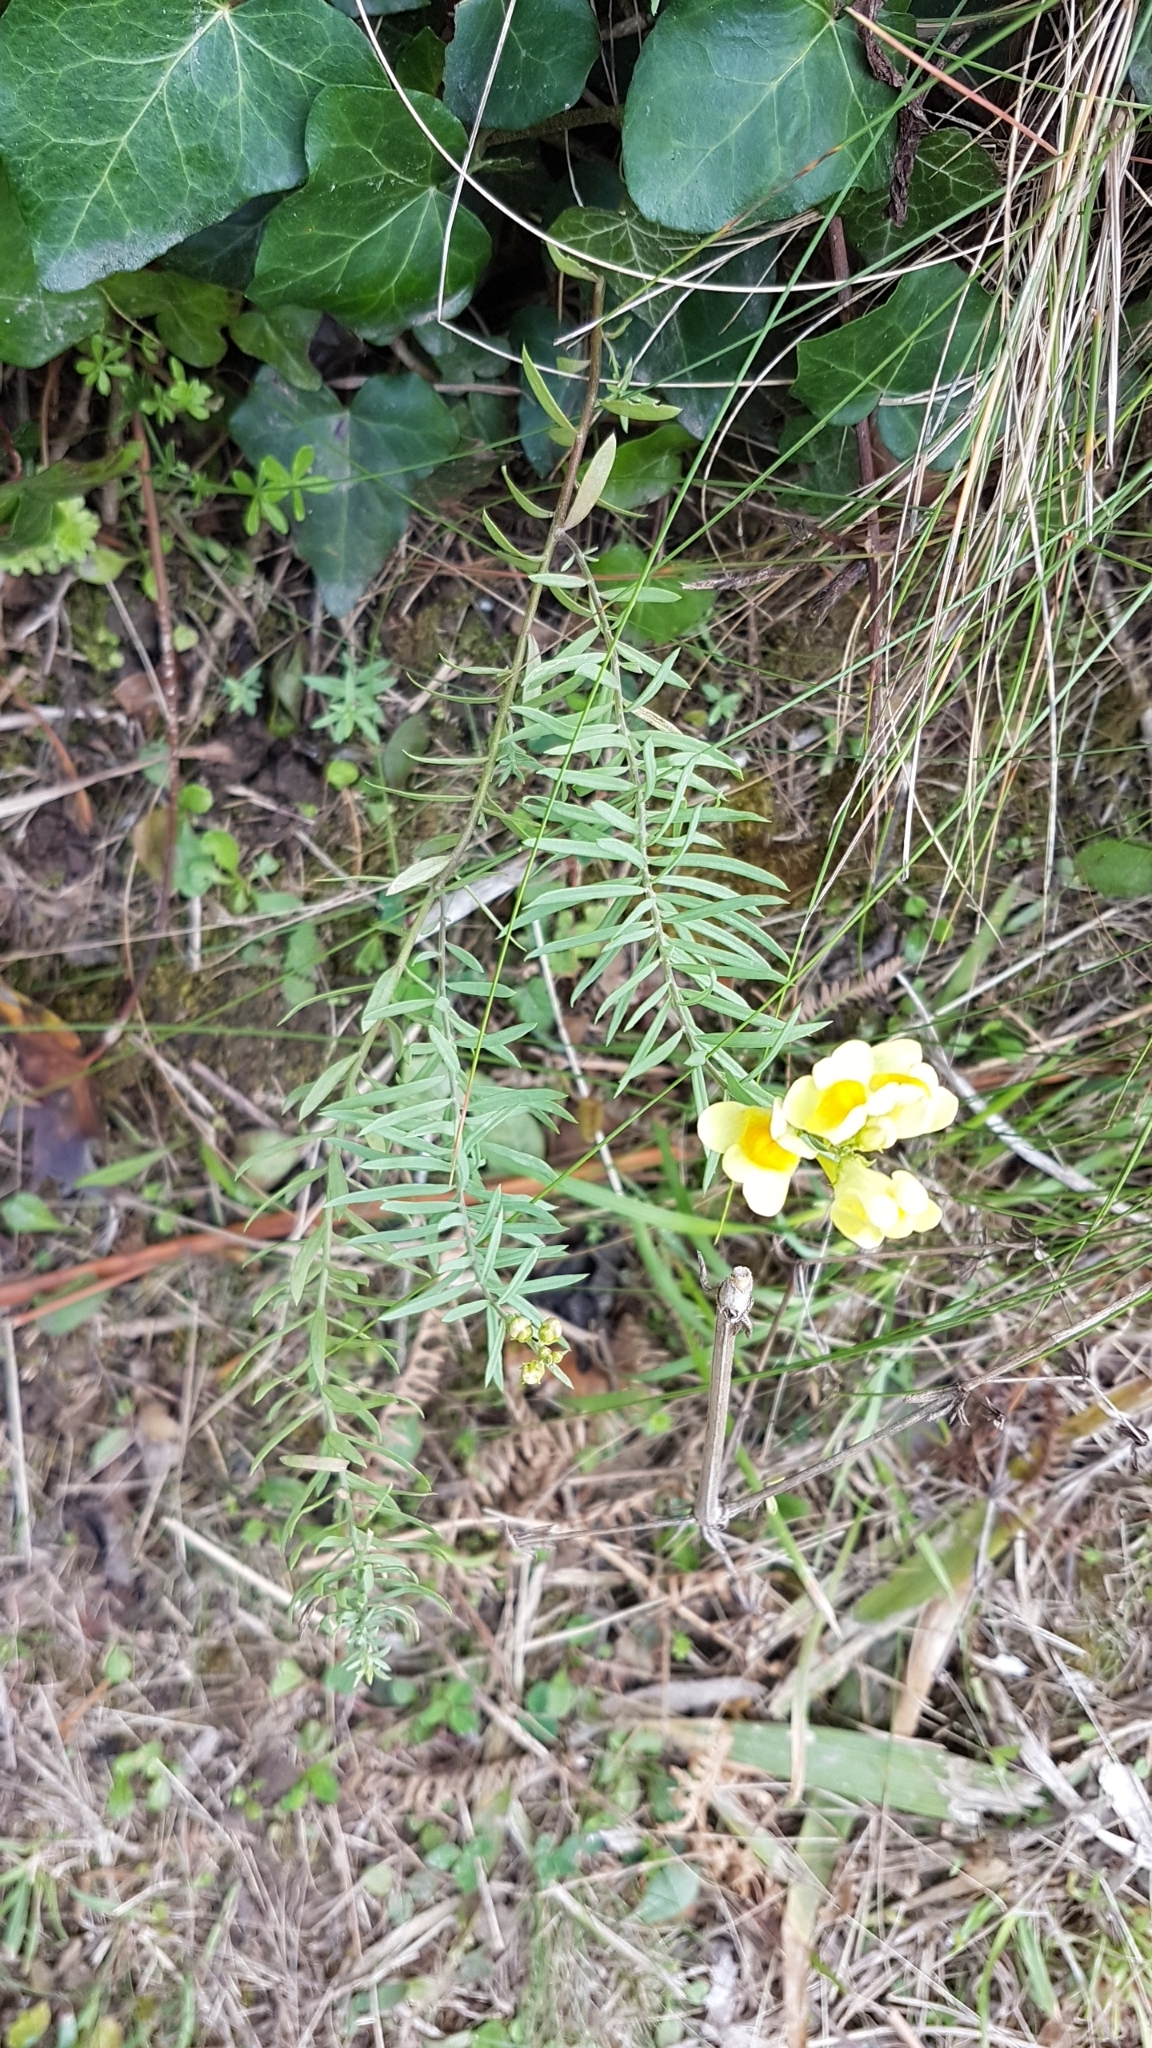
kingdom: Plantae
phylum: Tracheophyta
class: Magnoliopsida
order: Lamiales
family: Plantaginaceae
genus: Linaria
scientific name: Linaria vulgaris
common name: Butter and eggs
